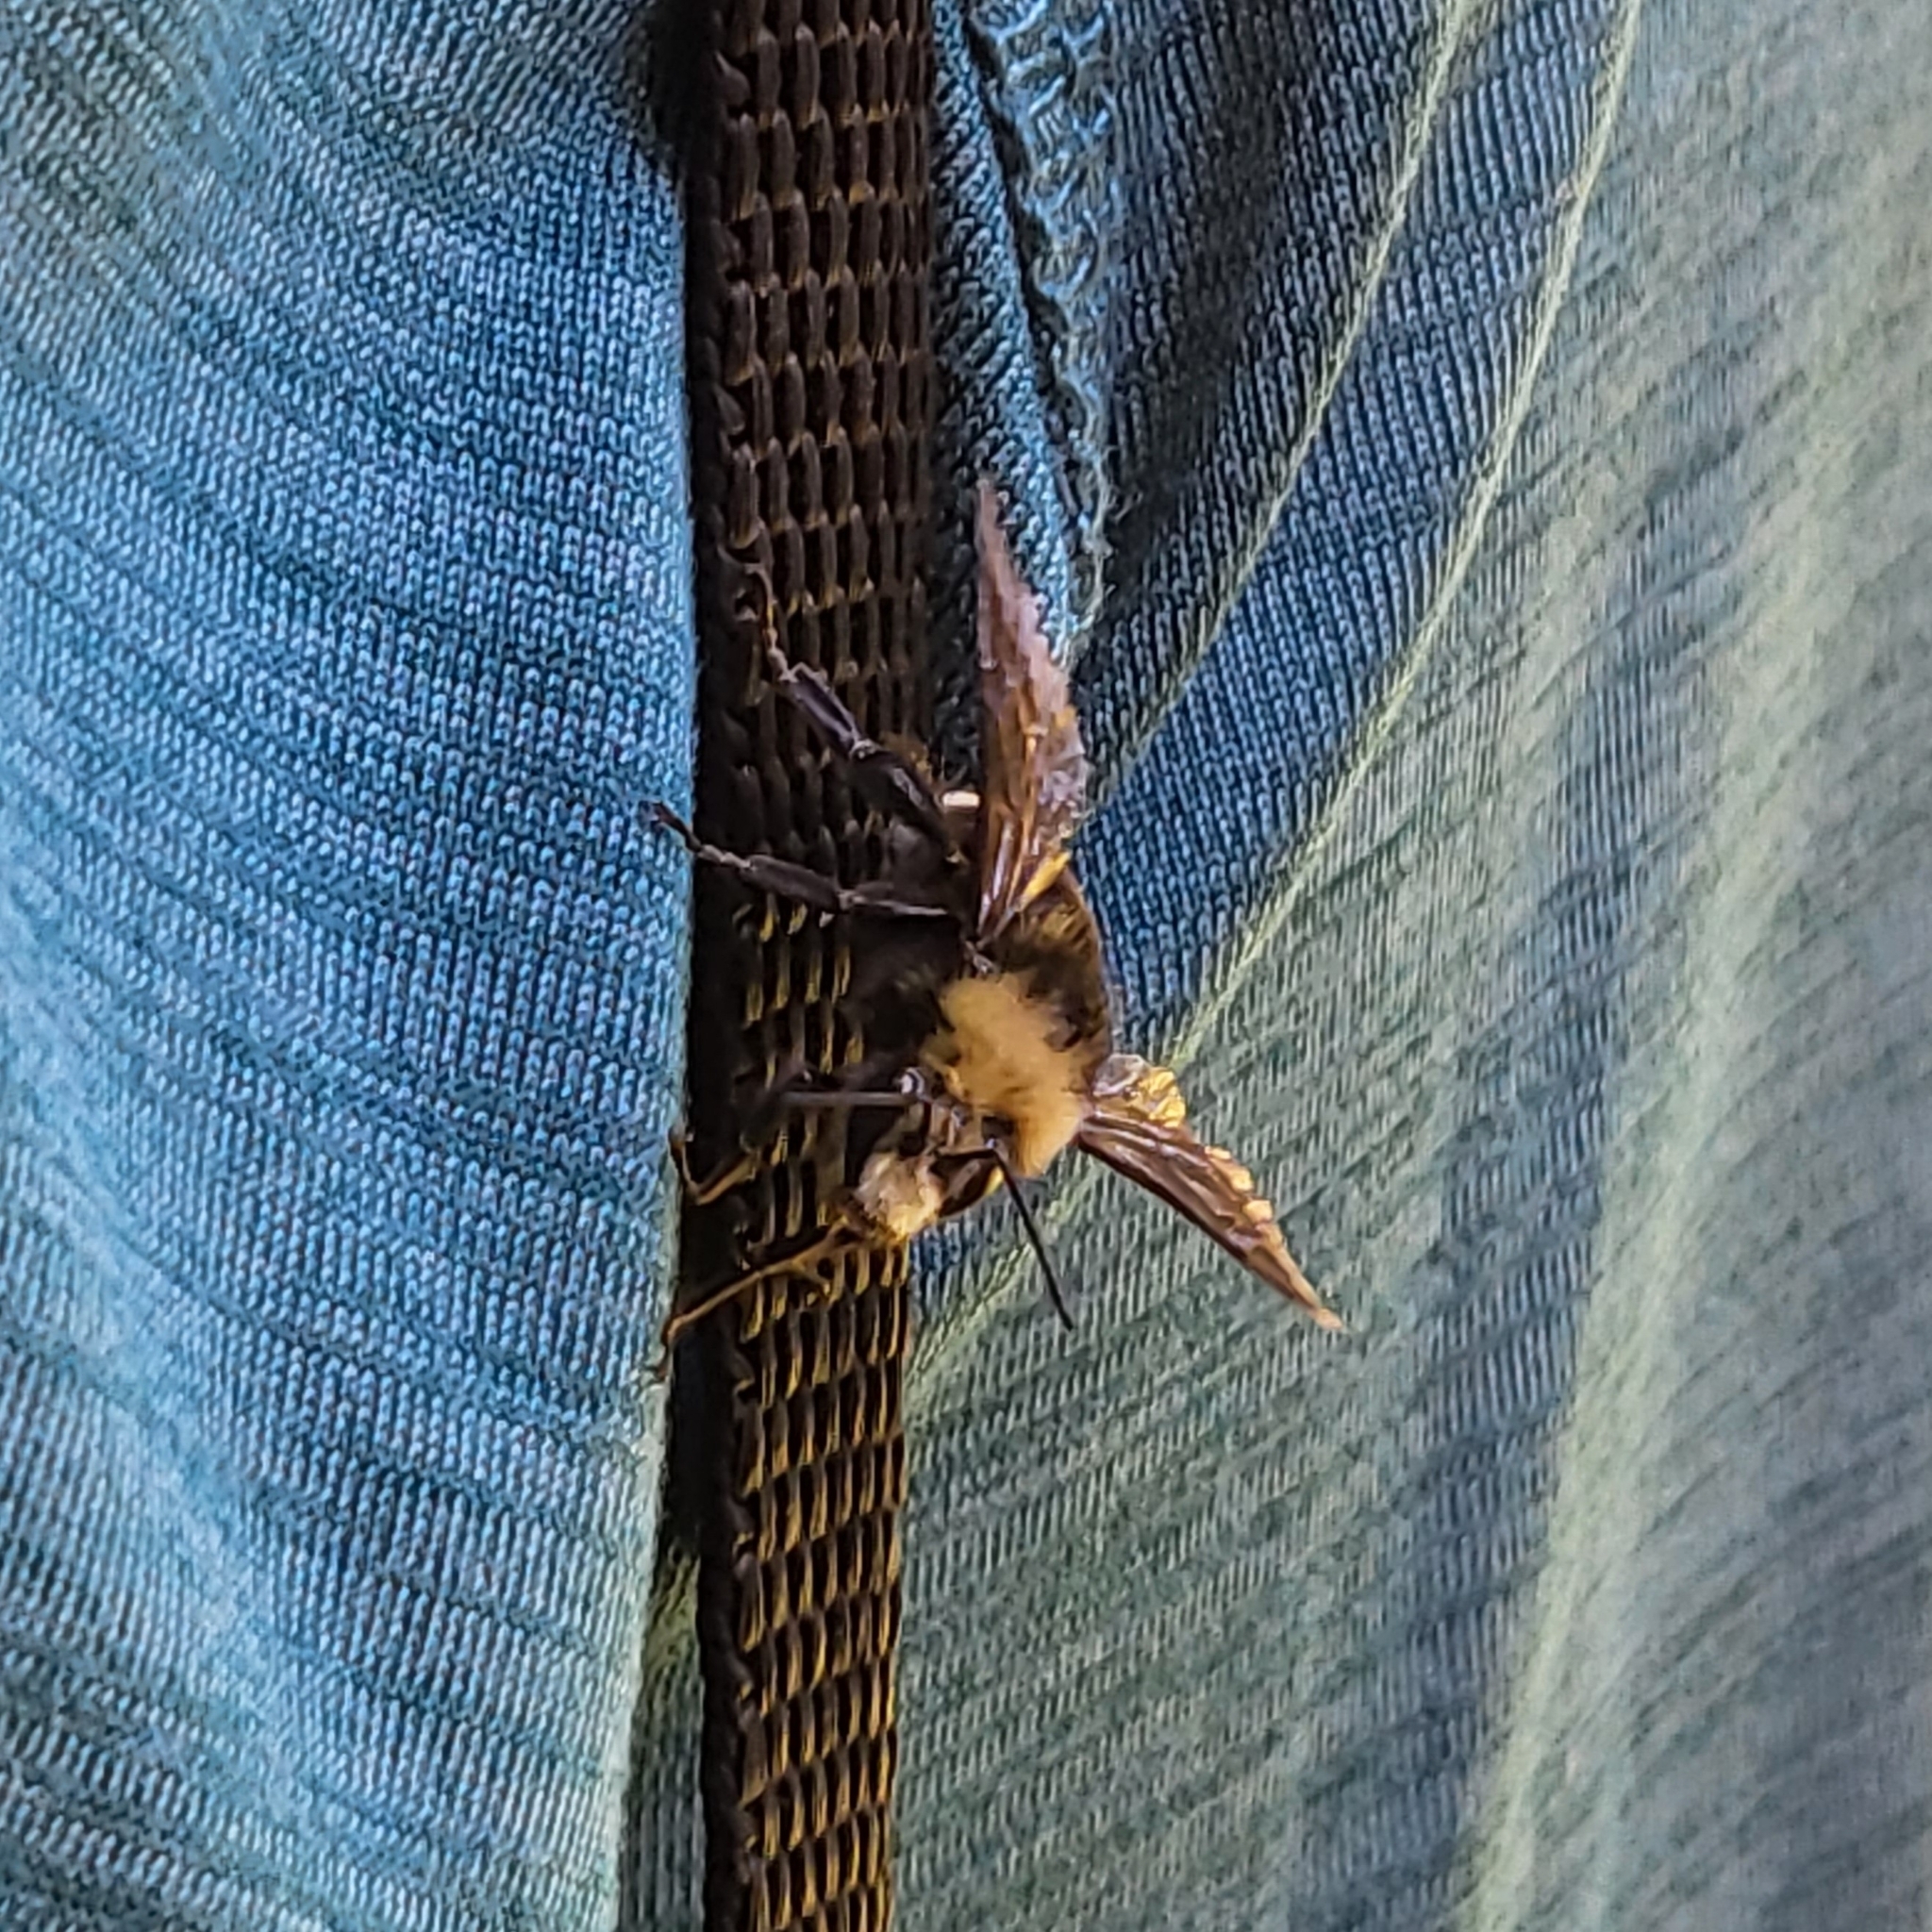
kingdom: Animalia
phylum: Arthropoda
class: Insecta
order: Hymenoptera
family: Apidae
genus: Bombus
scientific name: Bombus vosnesenskii
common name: Vosnesensky bumble bee
